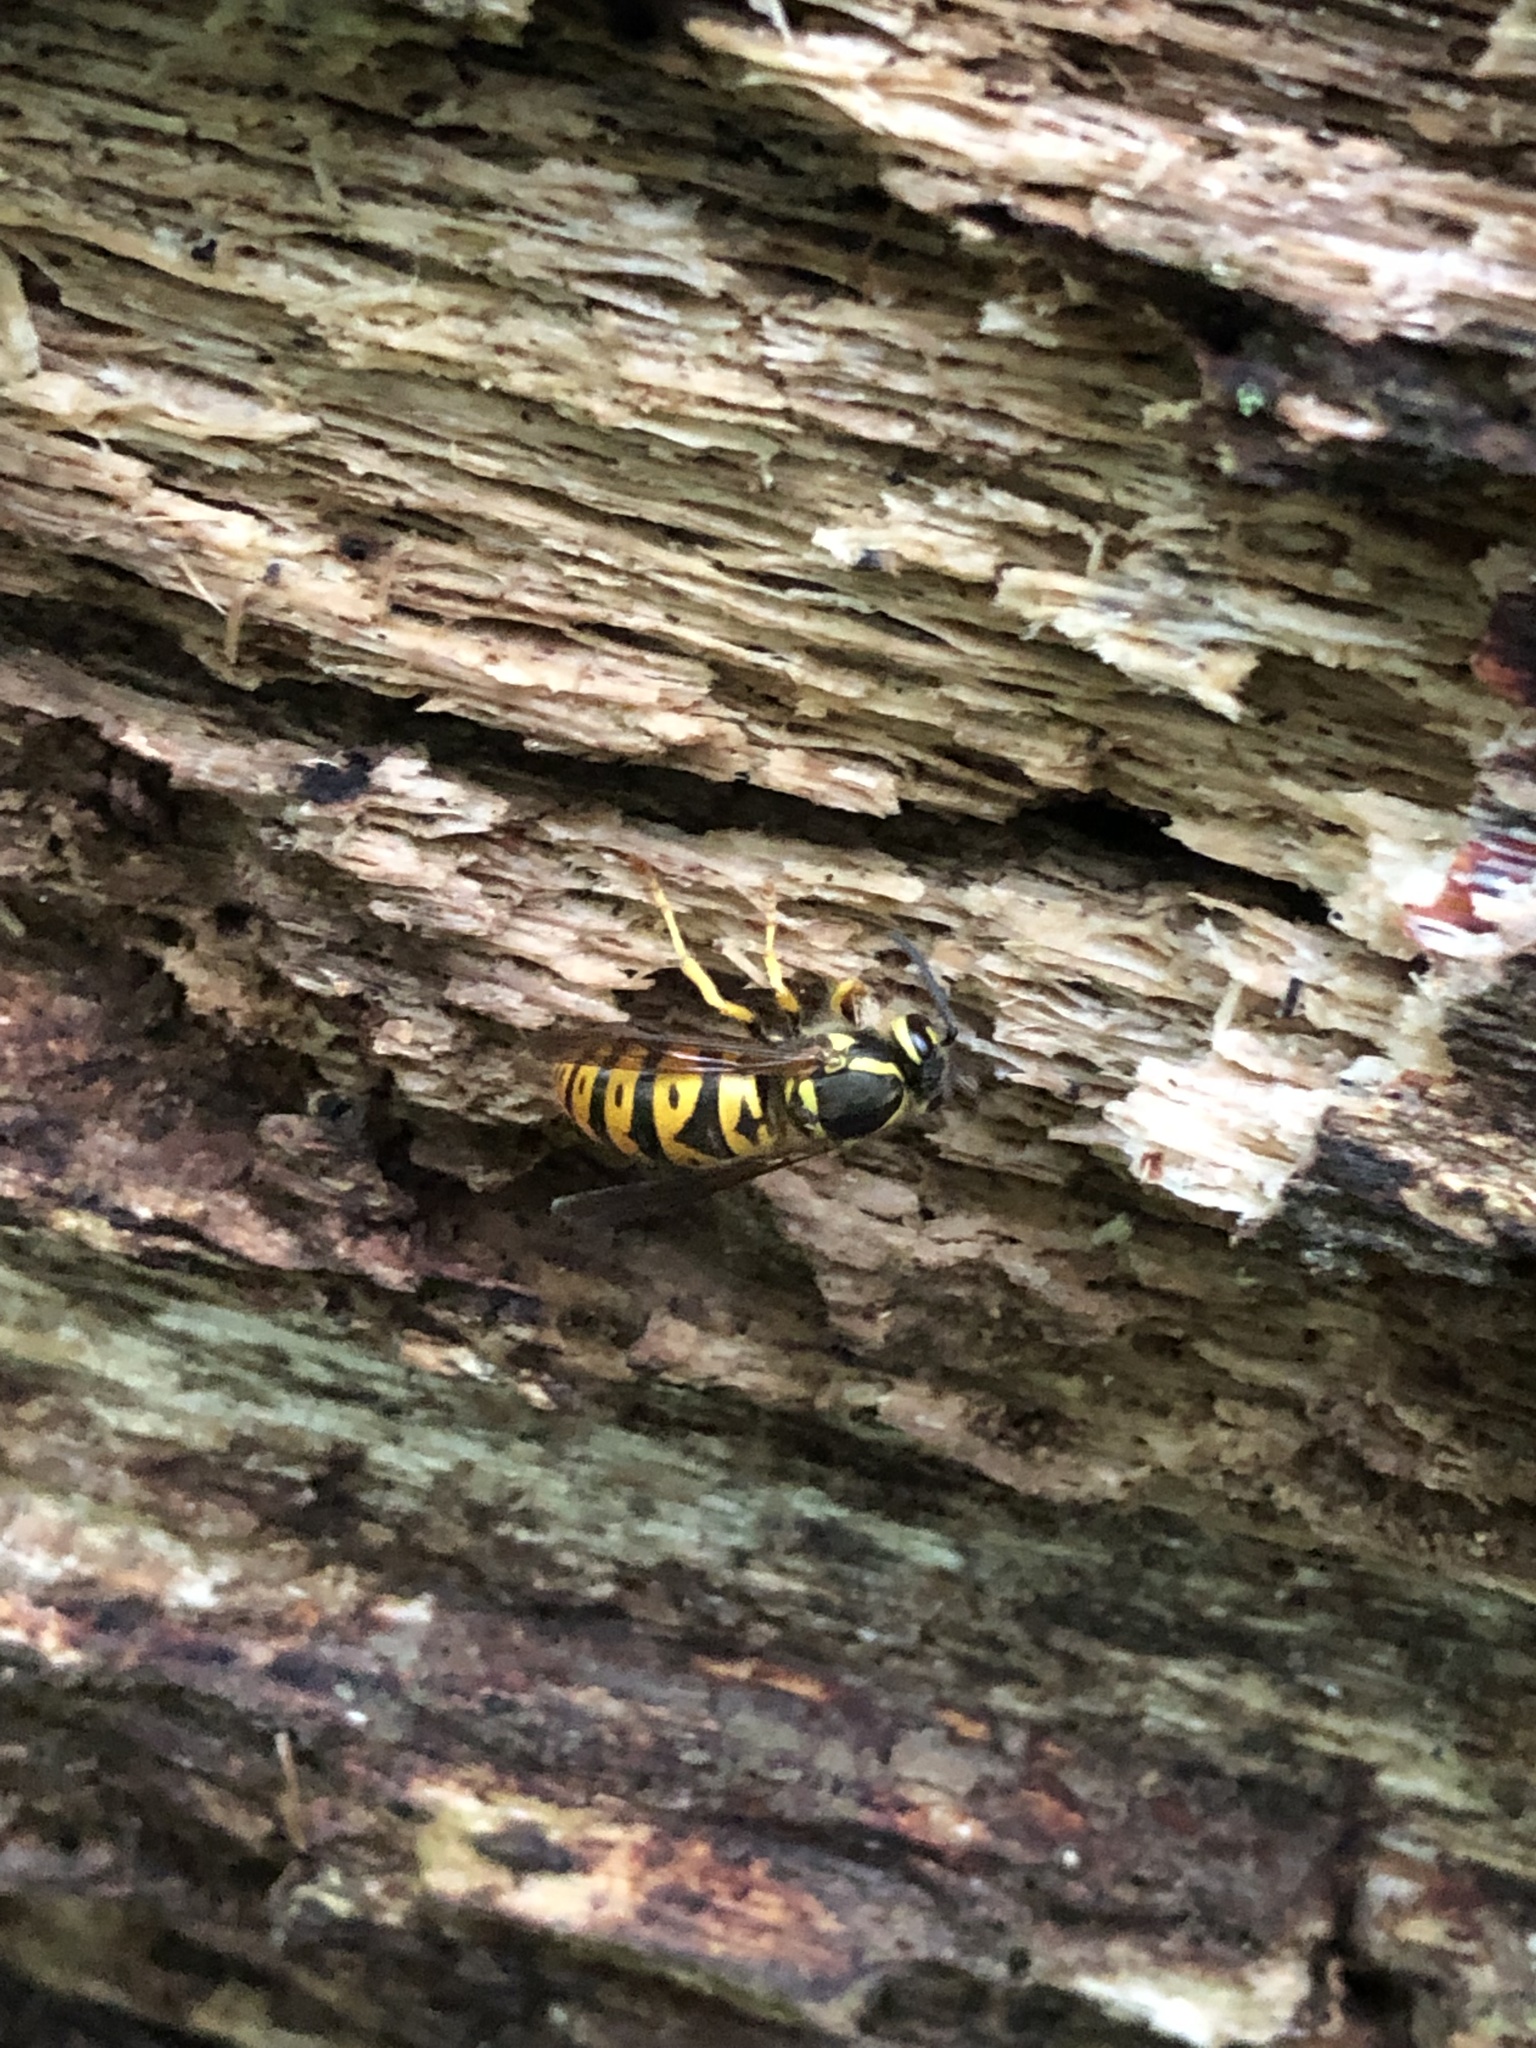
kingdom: Animalia
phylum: Arthropoda
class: Insecta
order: Hymenoptera
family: Vespidae
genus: Vespula
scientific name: Vespula maculifrons
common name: Eastern yellowjacket
